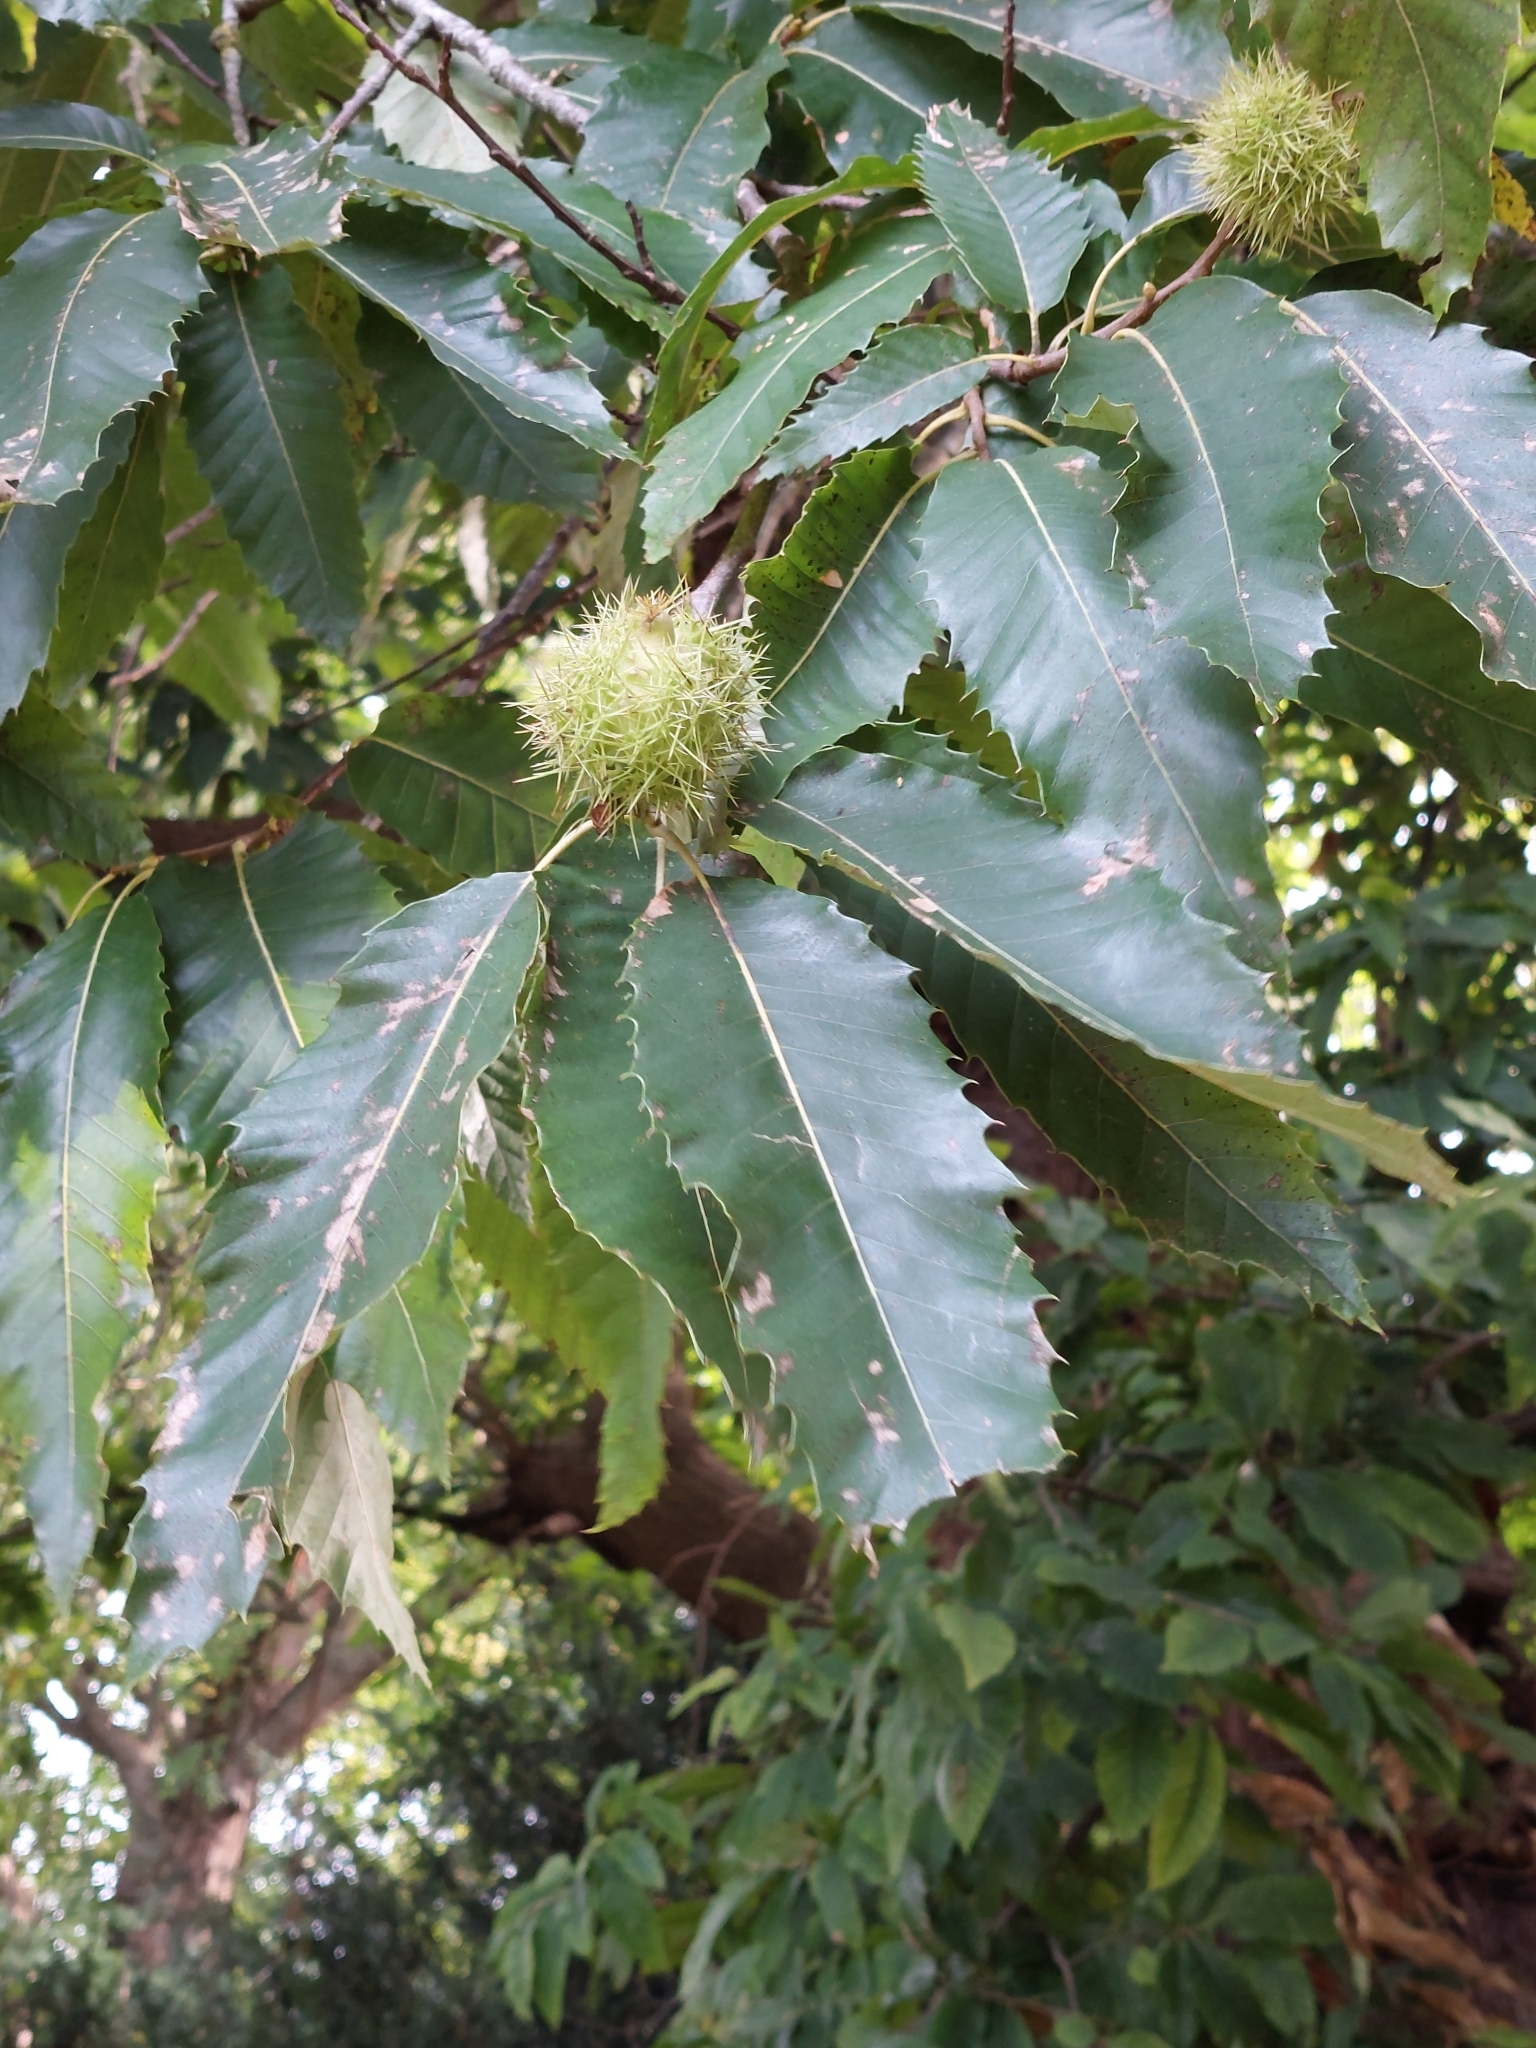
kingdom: Plantae
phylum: Tracheophyta
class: Magnoliopsida
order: Fagales
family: Fagaceae
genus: Castanea
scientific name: Castanea sativa
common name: Sweet chestnut
